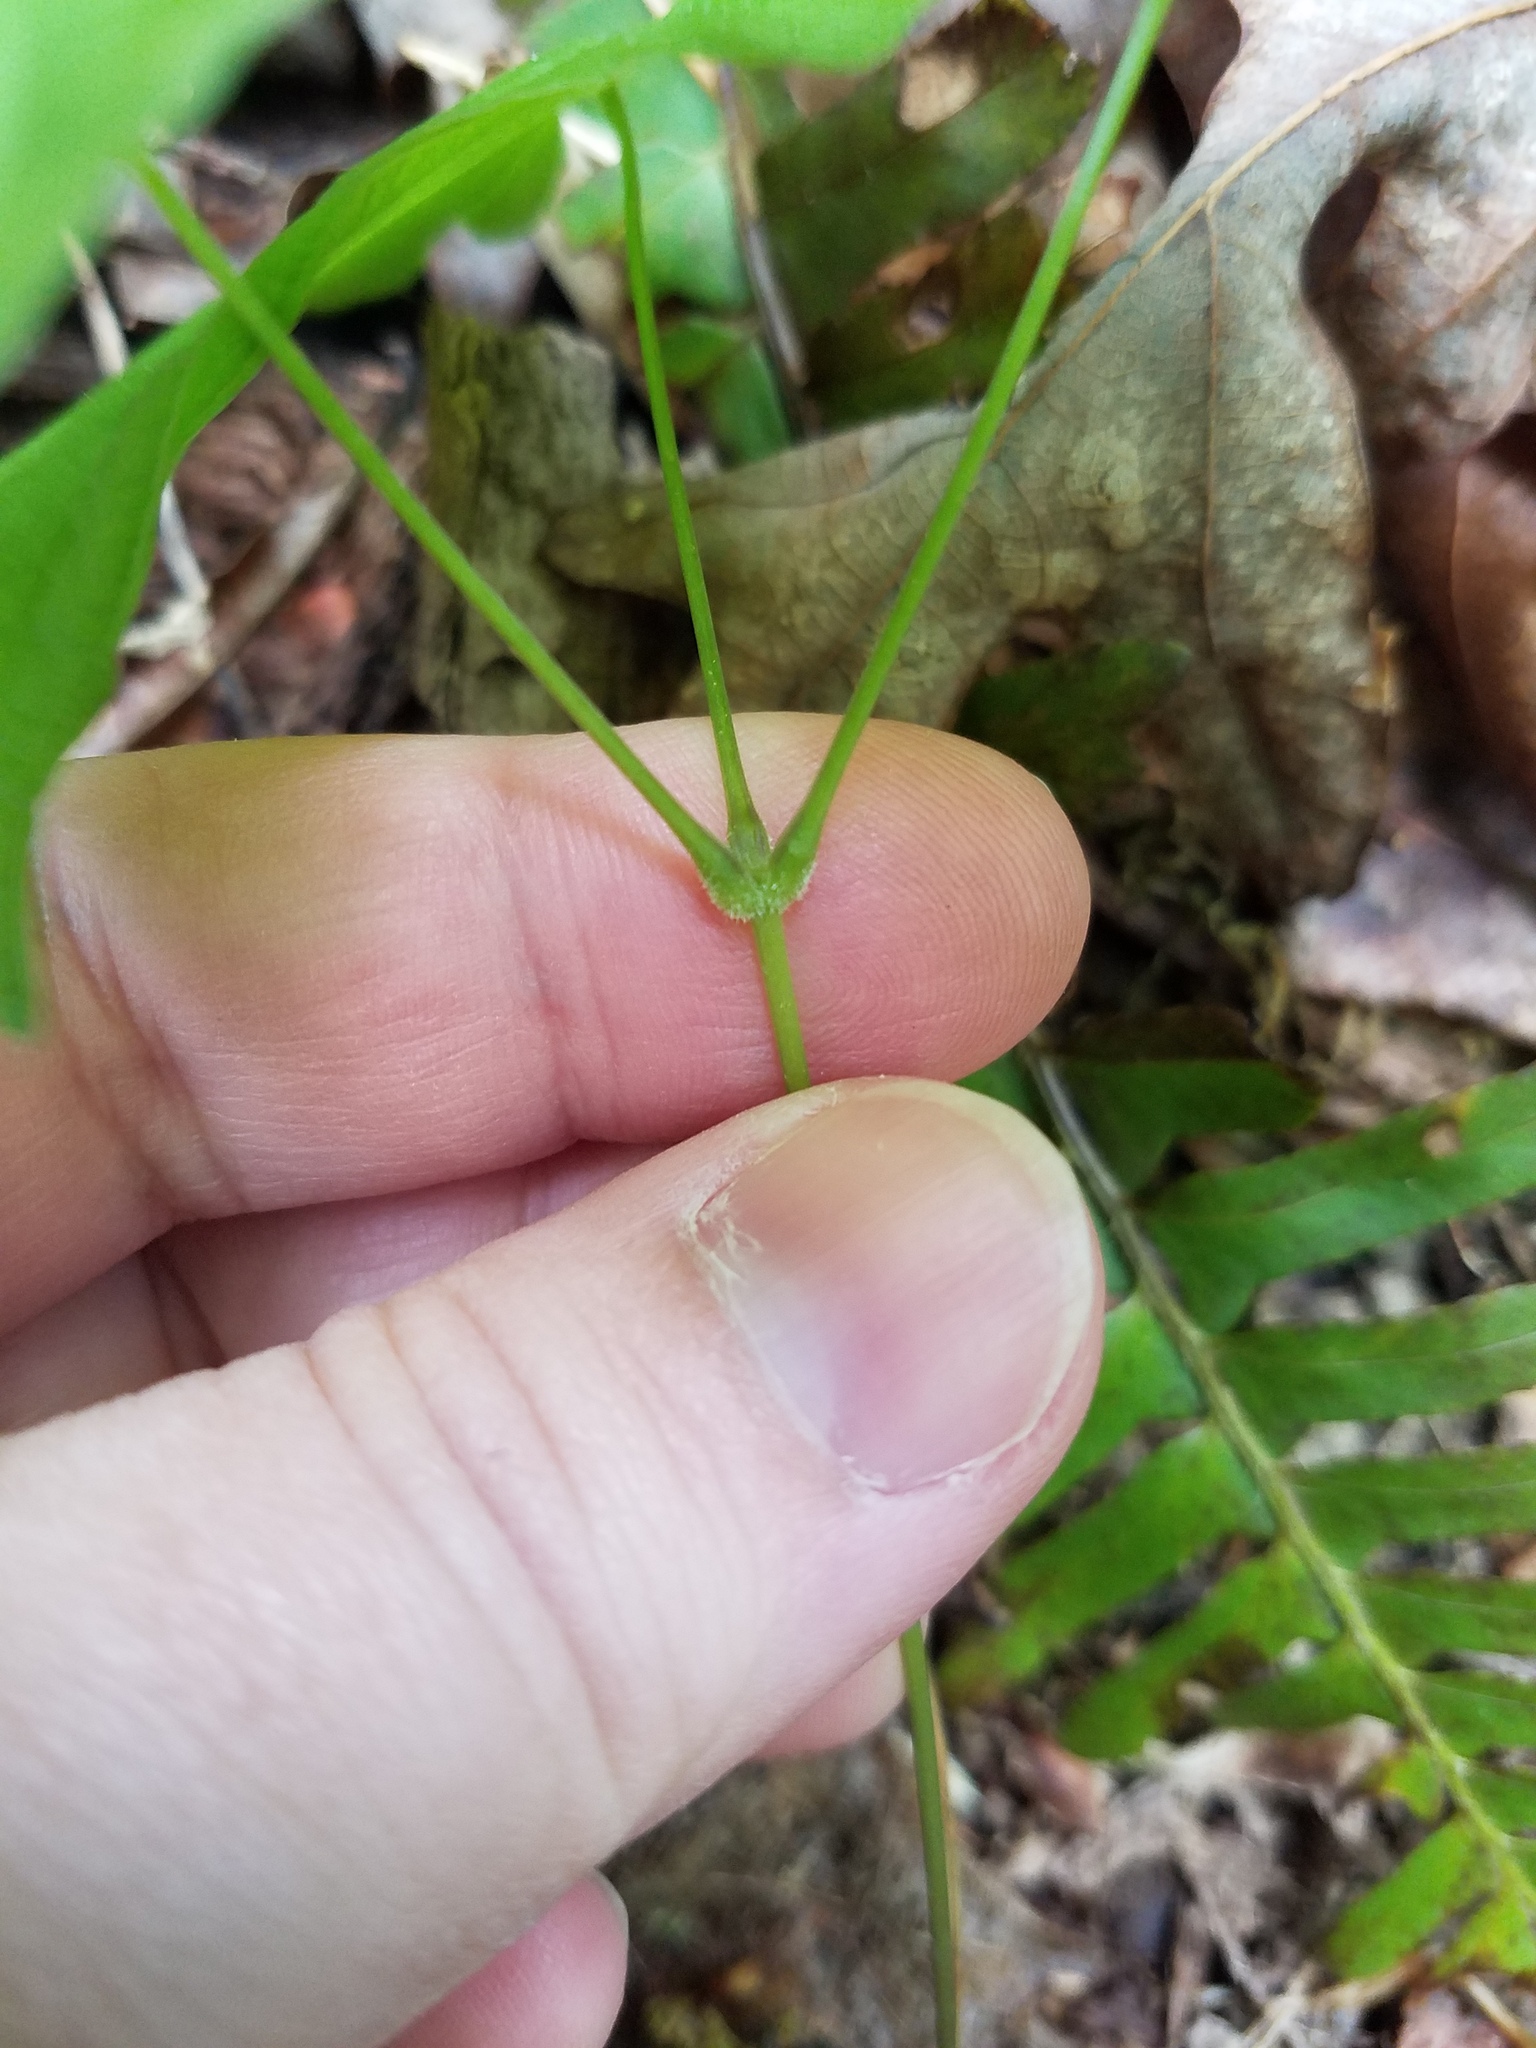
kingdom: Plantae
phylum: Tracheophyta
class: Liliopsida
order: Dioscoreales
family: Dioscoreaceae
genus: Dioscorea
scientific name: Dioscorea villosa
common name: Wild yam
